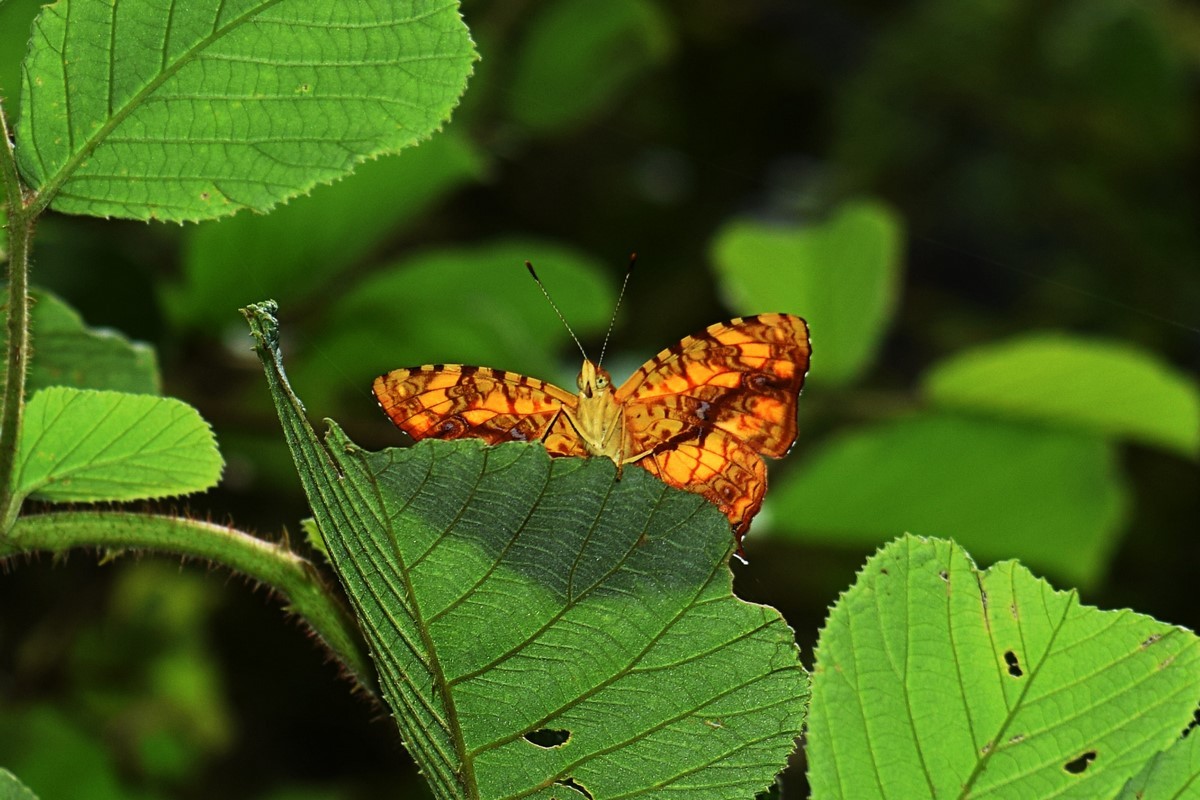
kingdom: Animalia
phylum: Arthropoda
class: Insecta
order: Lepidoptera
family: Nymphalidae
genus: Symbrenthia
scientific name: Symbrenthia hypselis
